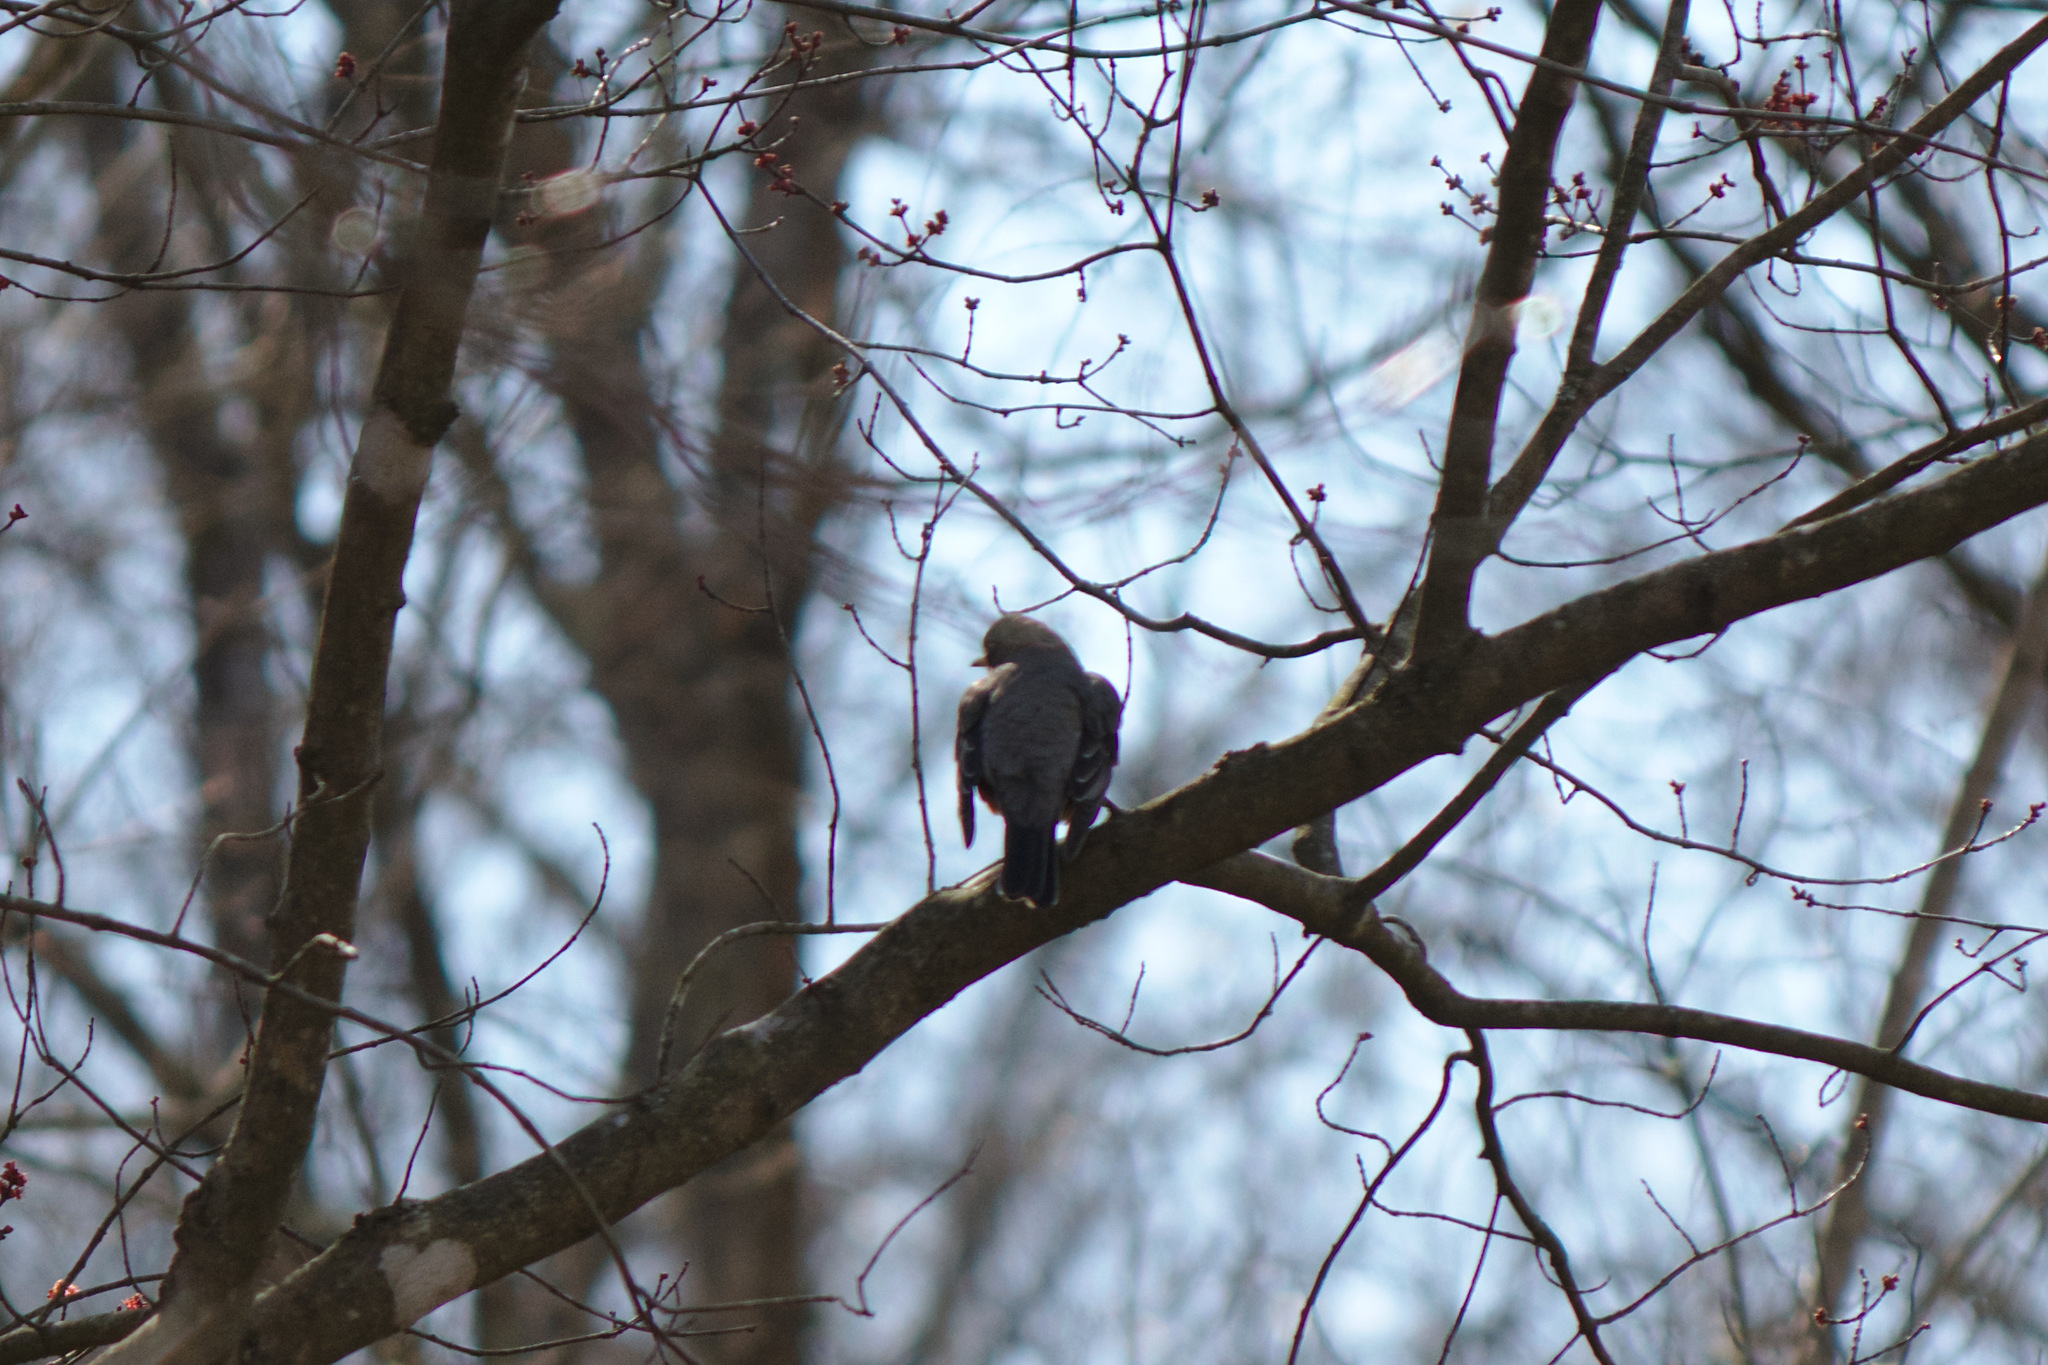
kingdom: Animalia
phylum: Chordata
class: Aves
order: Passeriformes
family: Turdidae
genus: Turdus
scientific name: Turdus migratorius
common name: American robin
